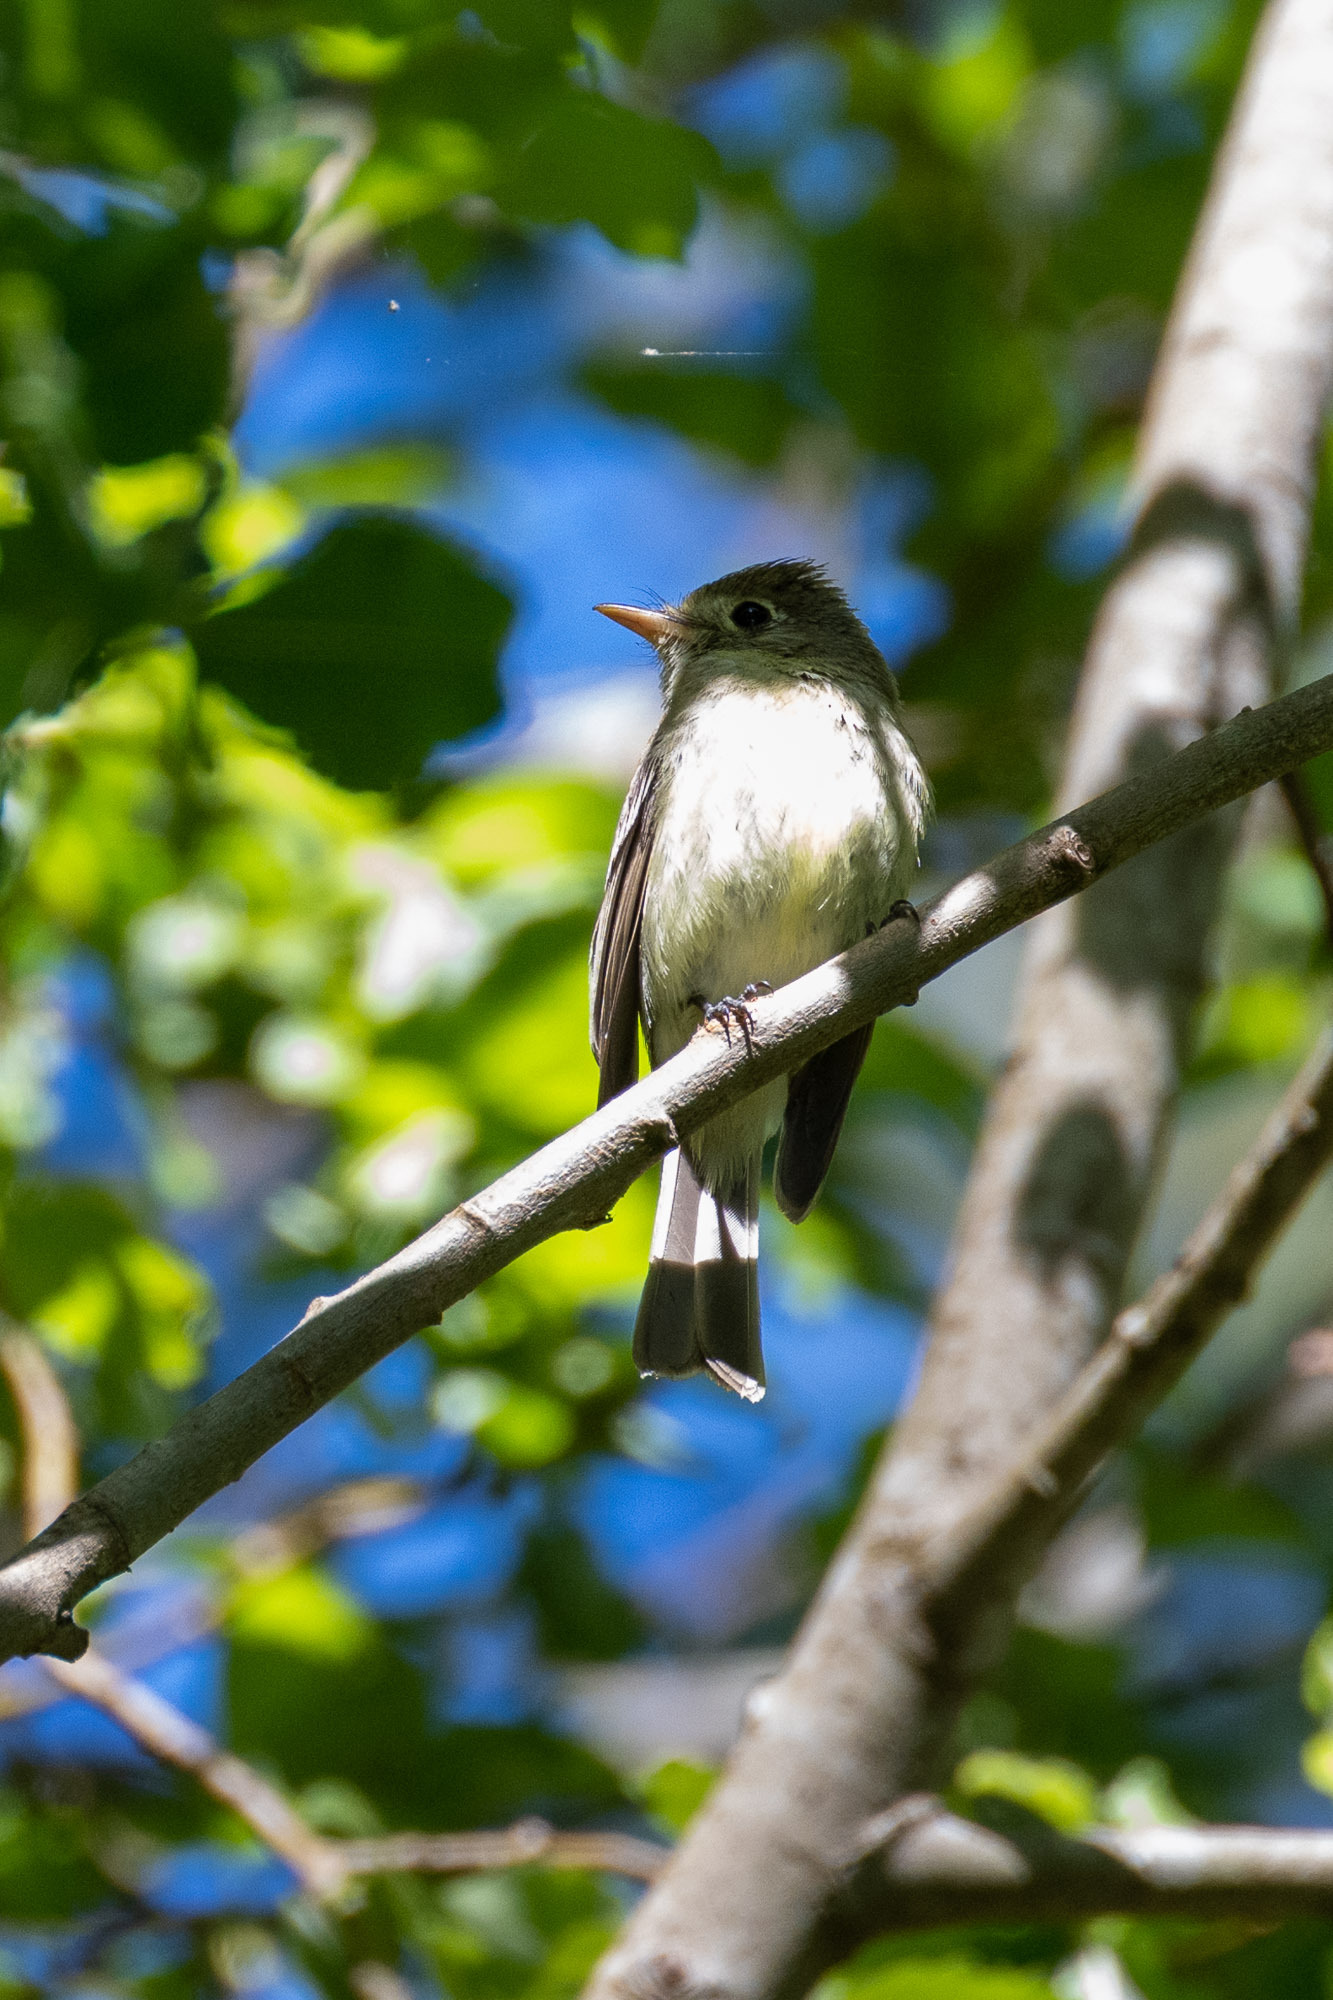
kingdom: Animalia
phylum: Chordata
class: Aves
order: Passeriformes
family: Tyrannidae
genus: Empidonax
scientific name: Empidonax difficilis
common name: Pacific-slope flycatcher
